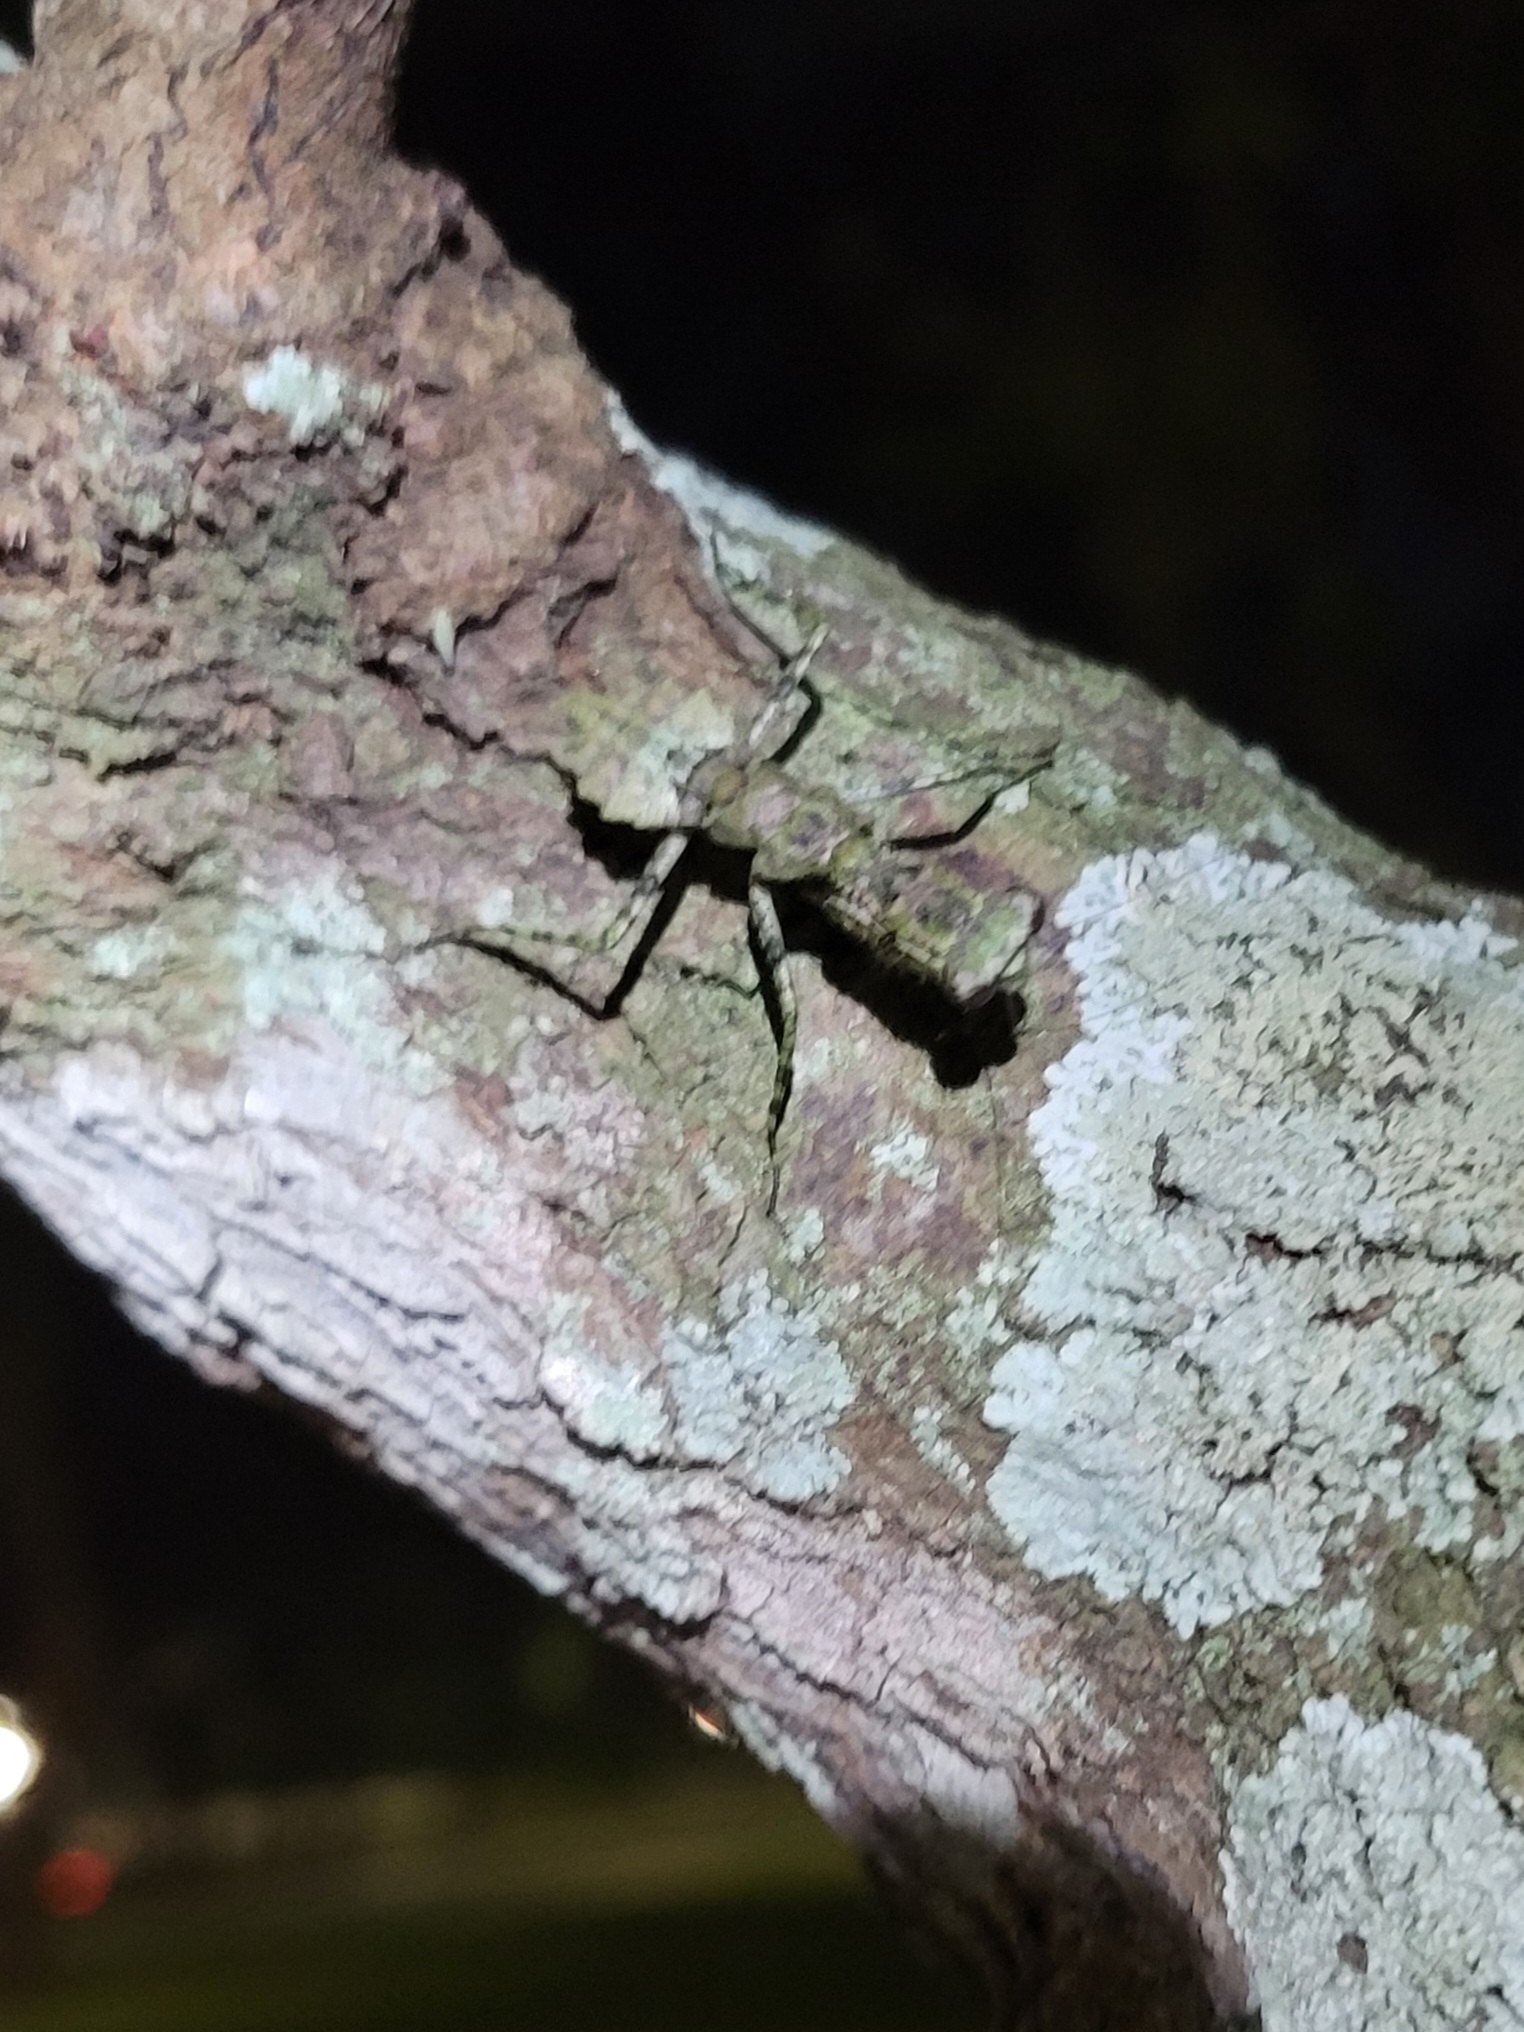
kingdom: Animalia
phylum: Arthropoda
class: Insecta
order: Mantodea
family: Epaphroditidae
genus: Gonatista
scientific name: Gonatista grisea
